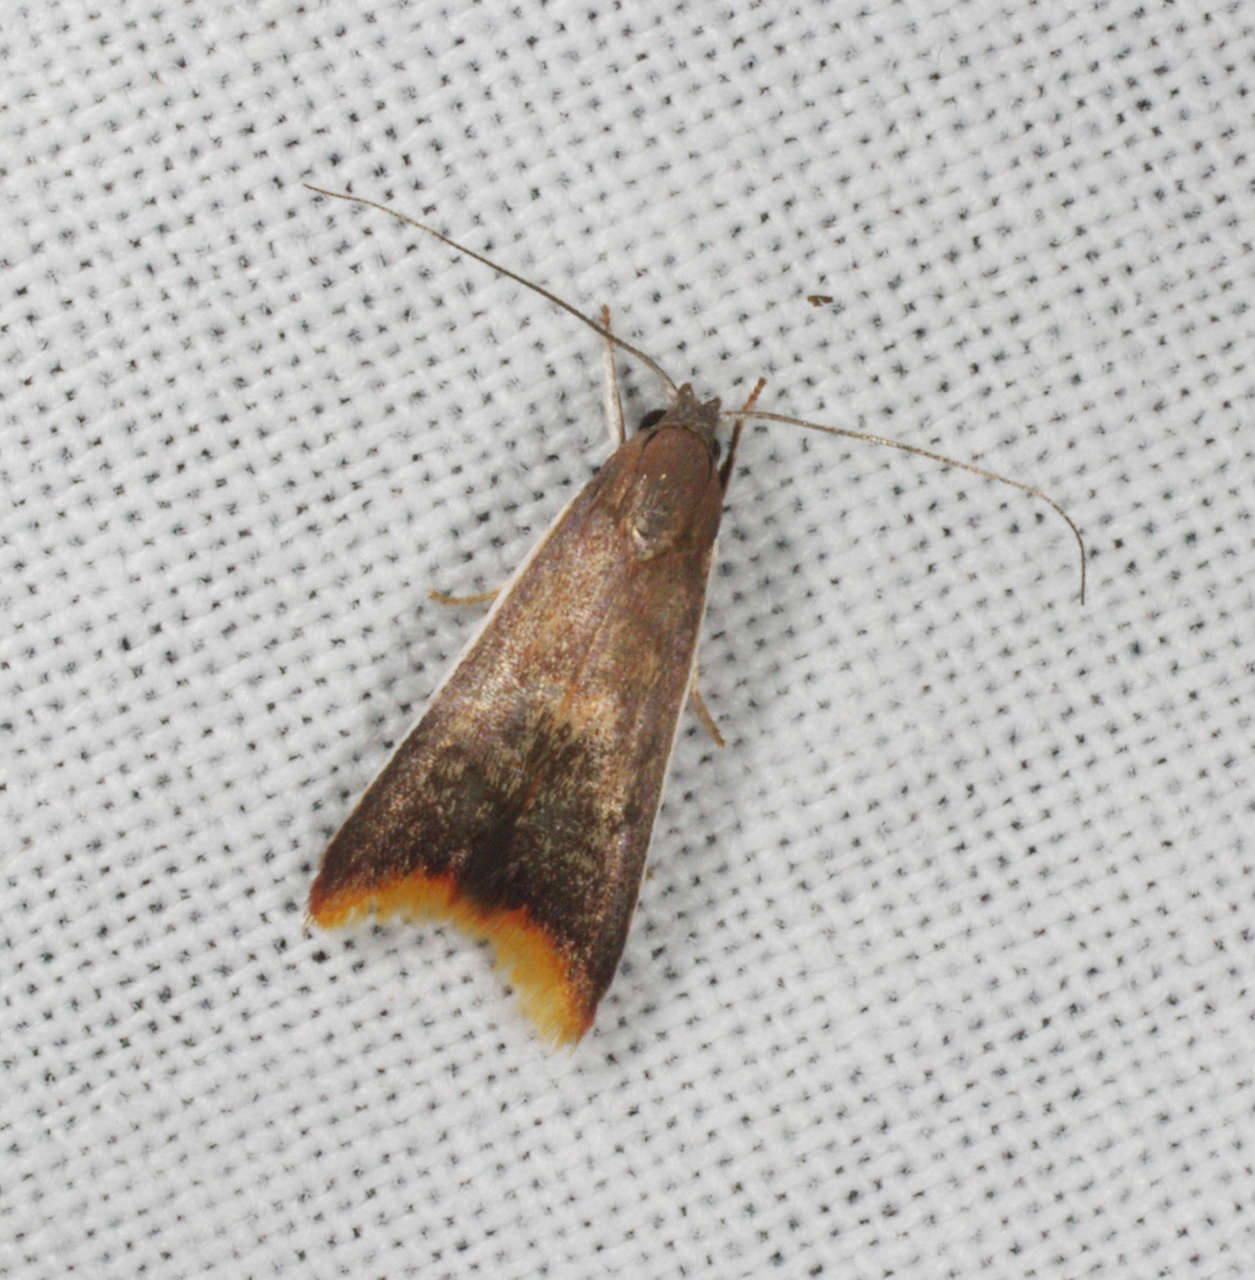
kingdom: Animalia
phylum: Arthropoda
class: Insecta
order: Lepidoptera
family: Oecophoridae
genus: Hemibela
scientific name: Hemibela callista
